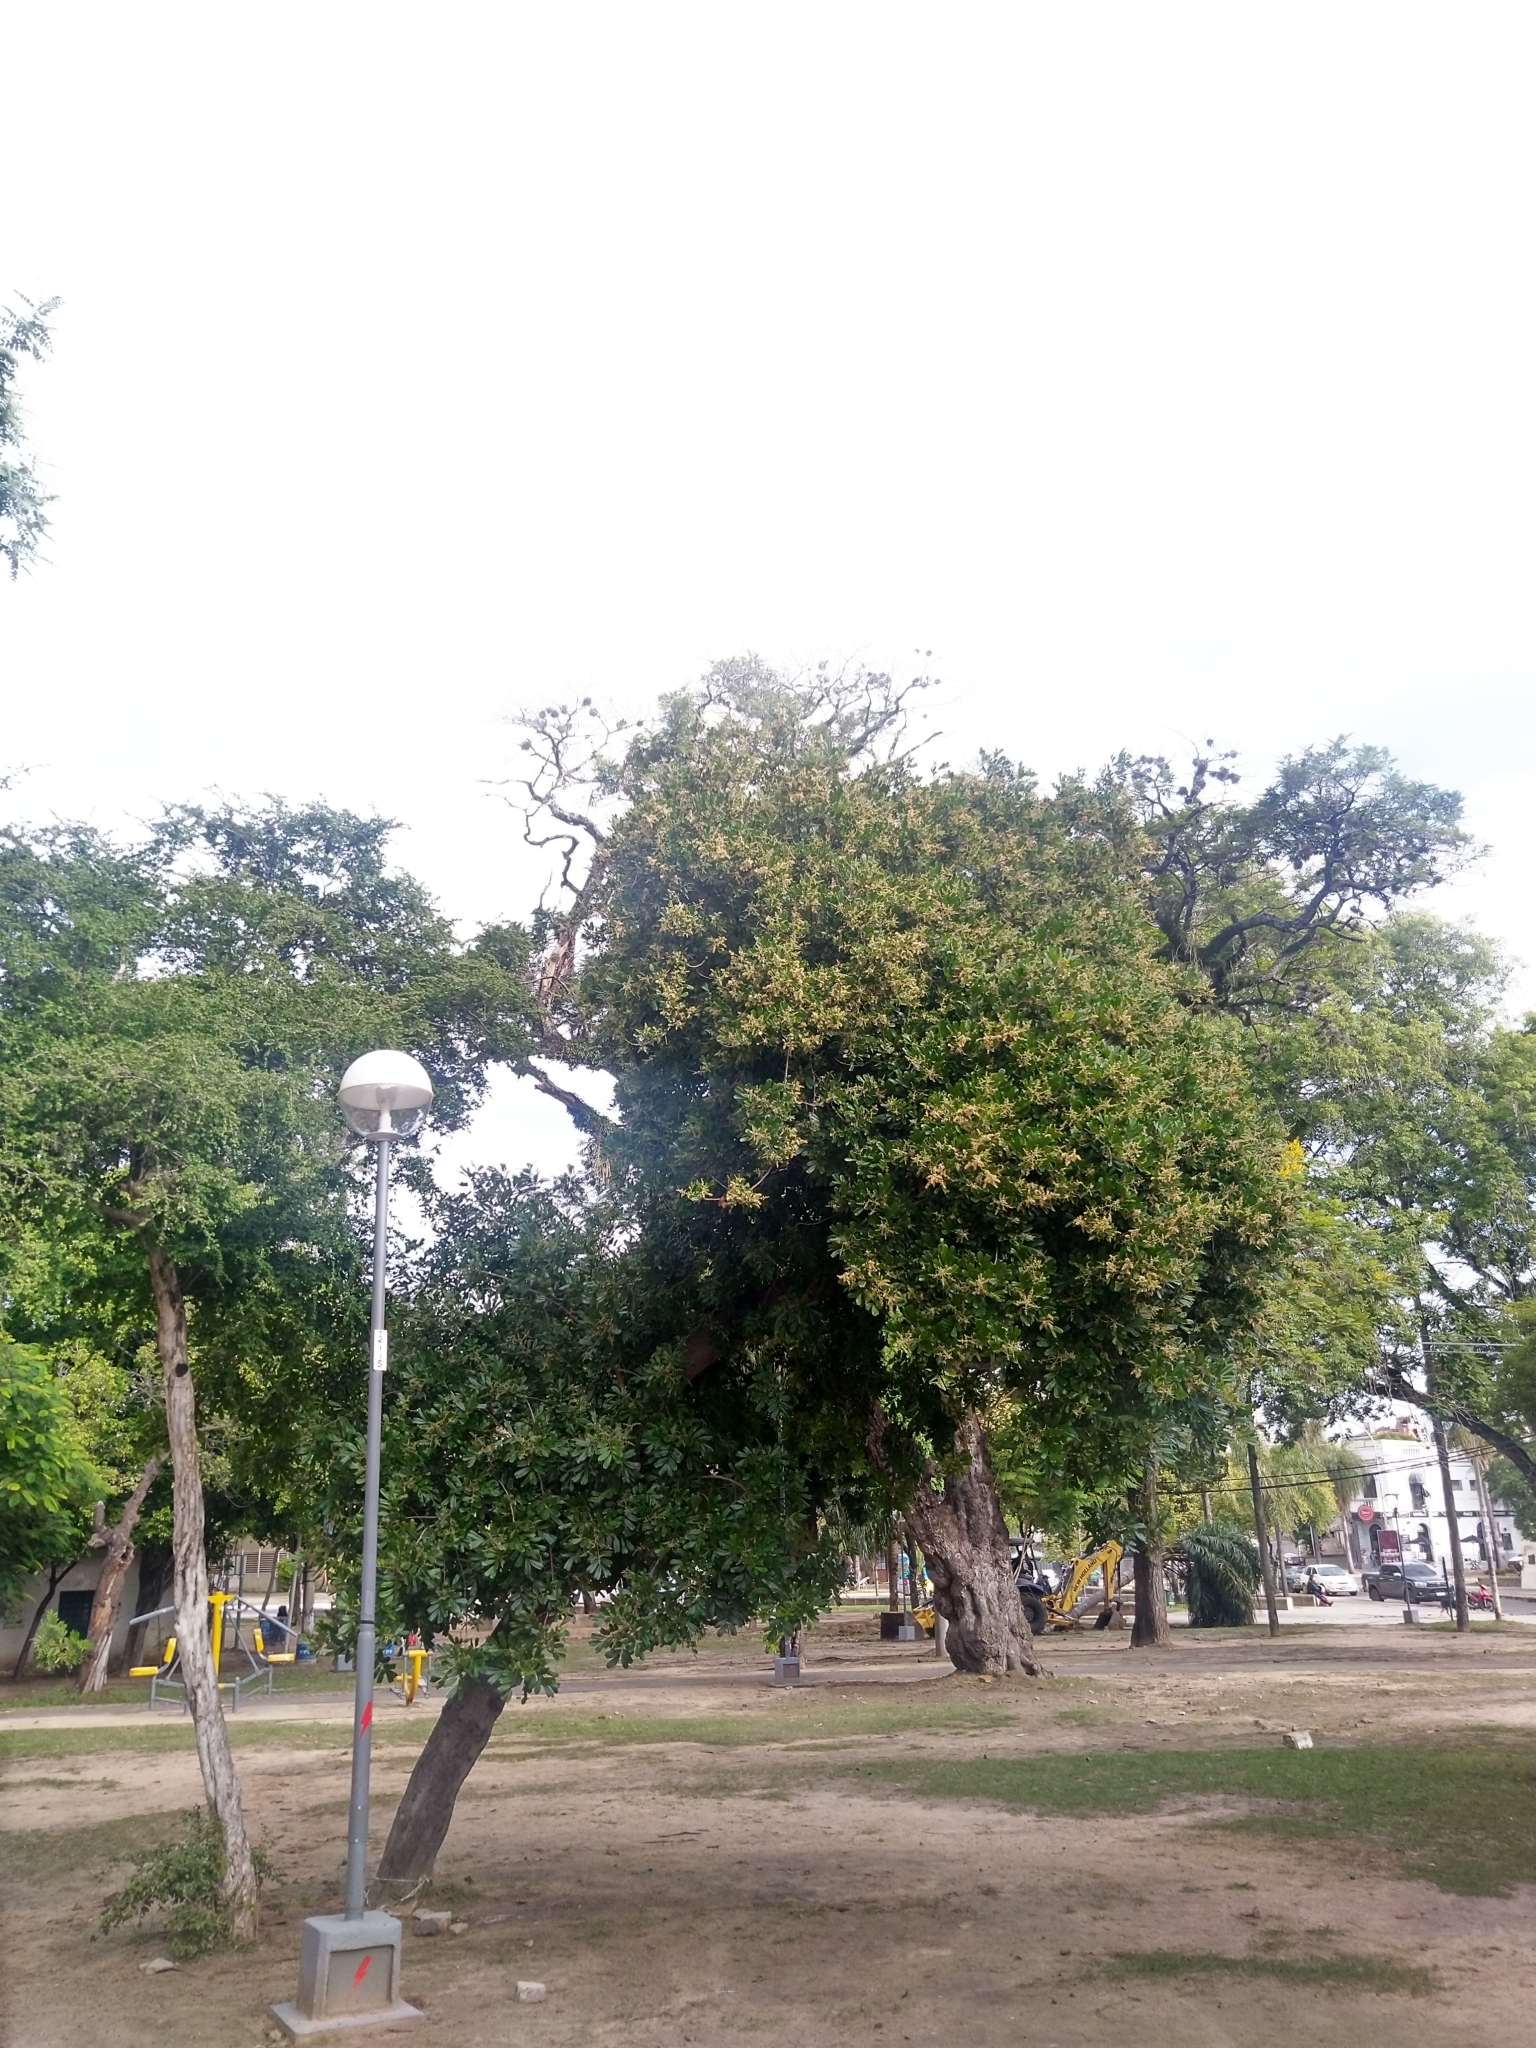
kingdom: Plantae
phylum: Tracheophyta
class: Magnoliopsida
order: Sapindales
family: Sapindaceae
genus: Cupania
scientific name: Cupania vernalis
